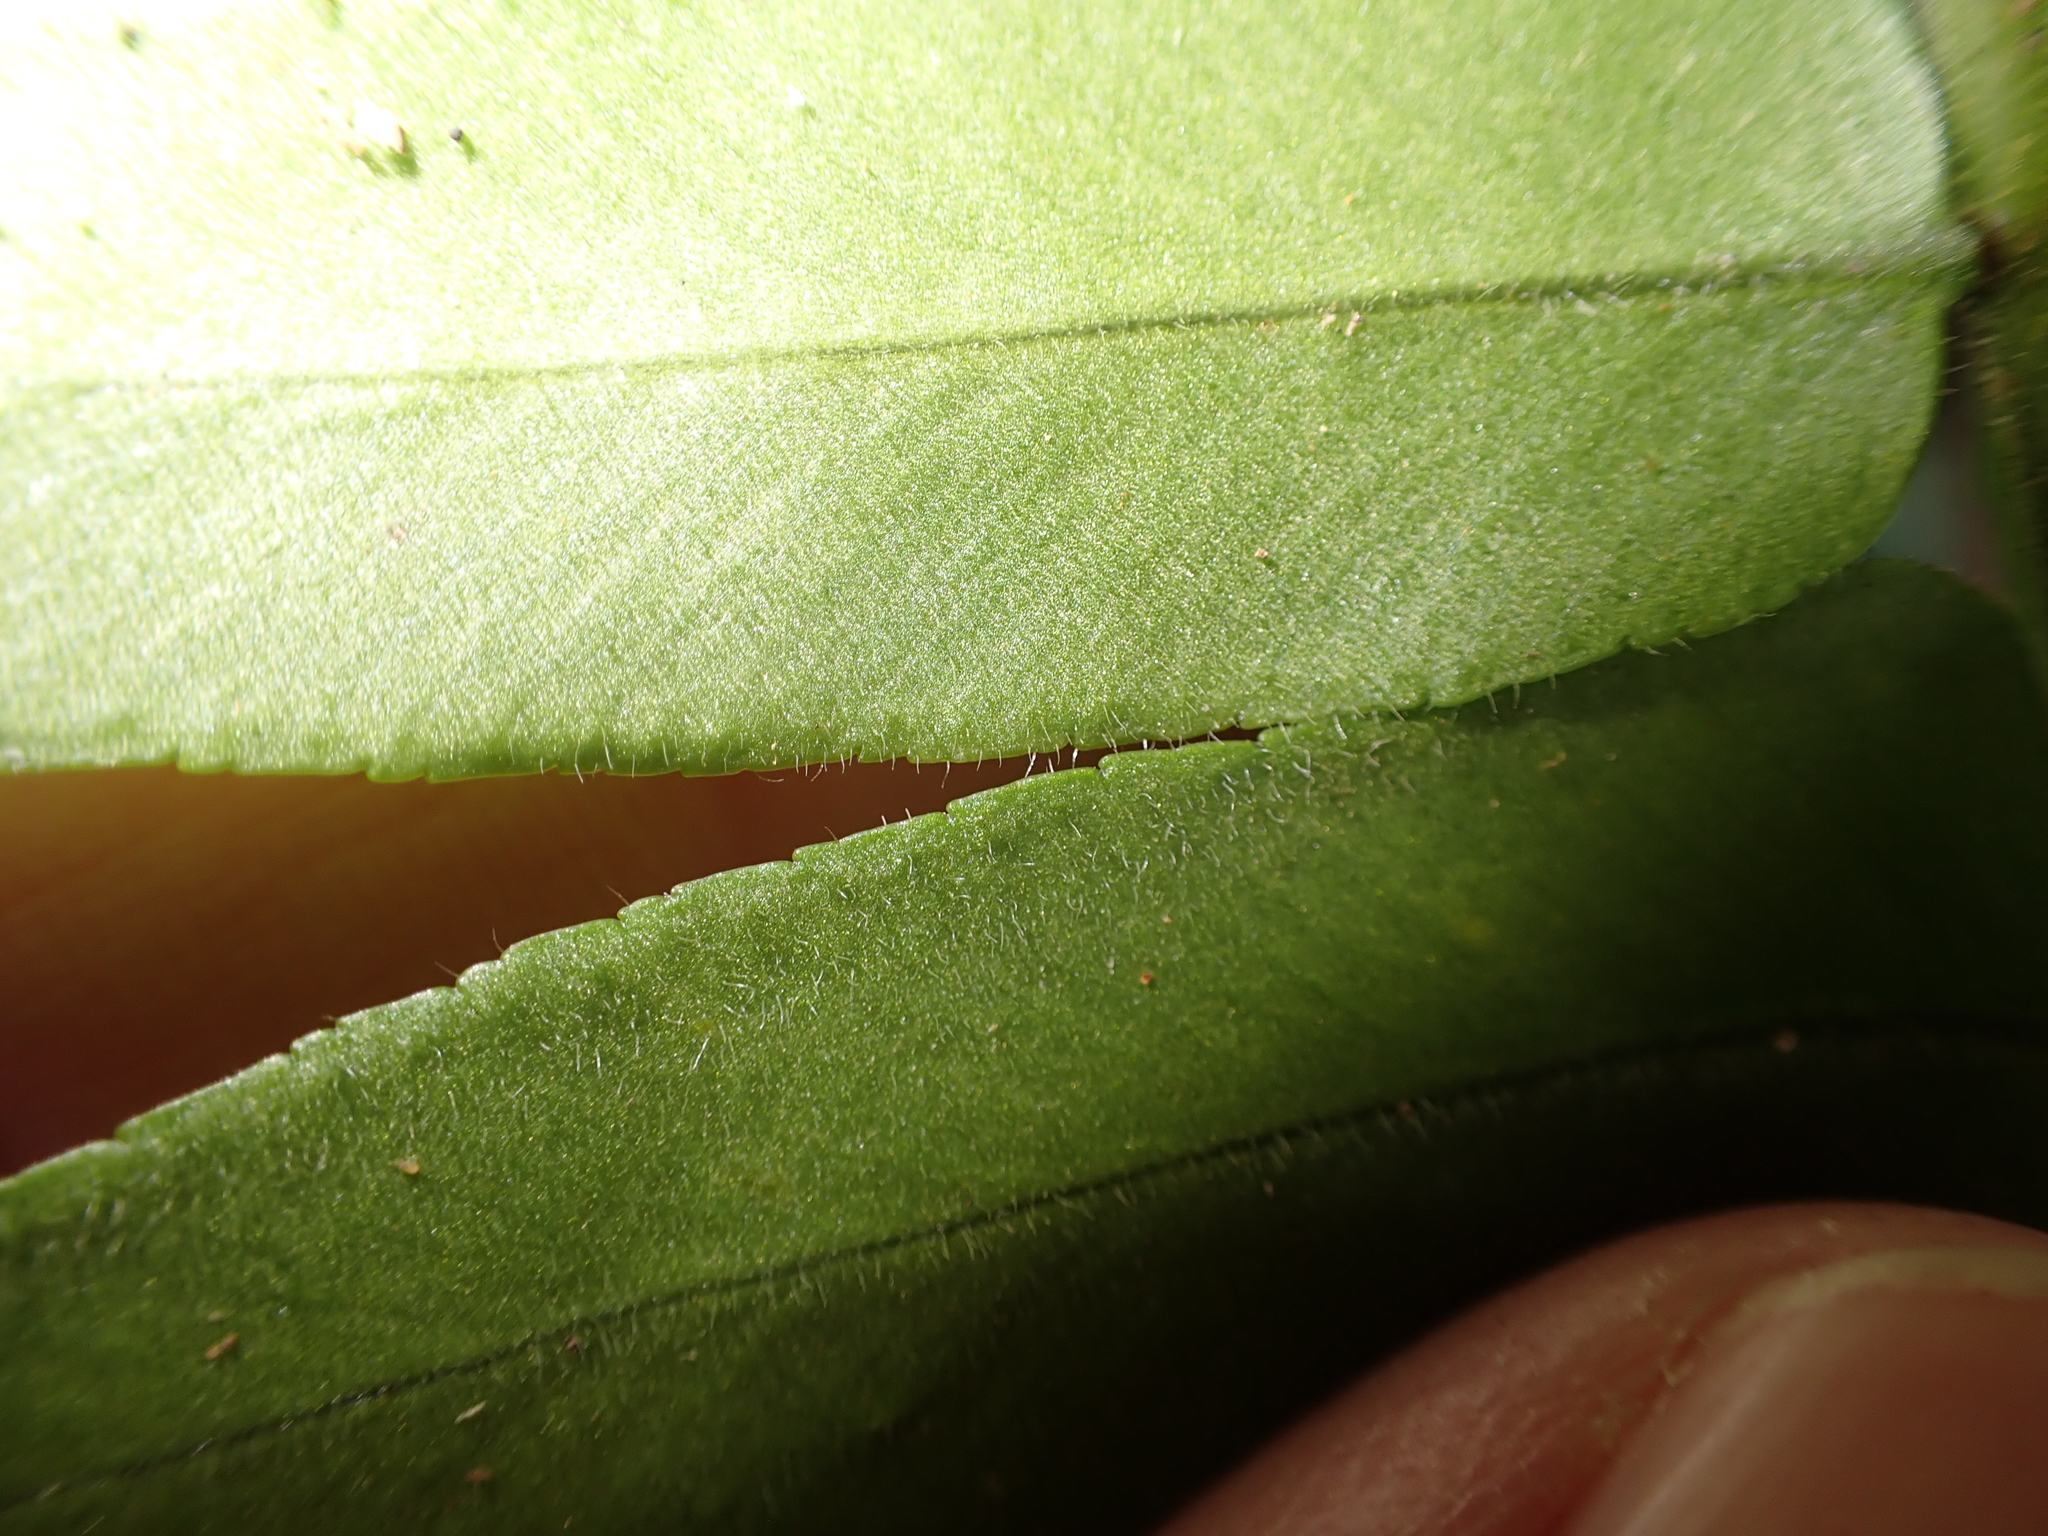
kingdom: Plantae
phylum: Tracheophyta
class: Polypodiopsida
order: Polypodiales
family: Nephrolepidaceae
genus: Nephrolepis
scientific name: Nephrolepis biserrata
